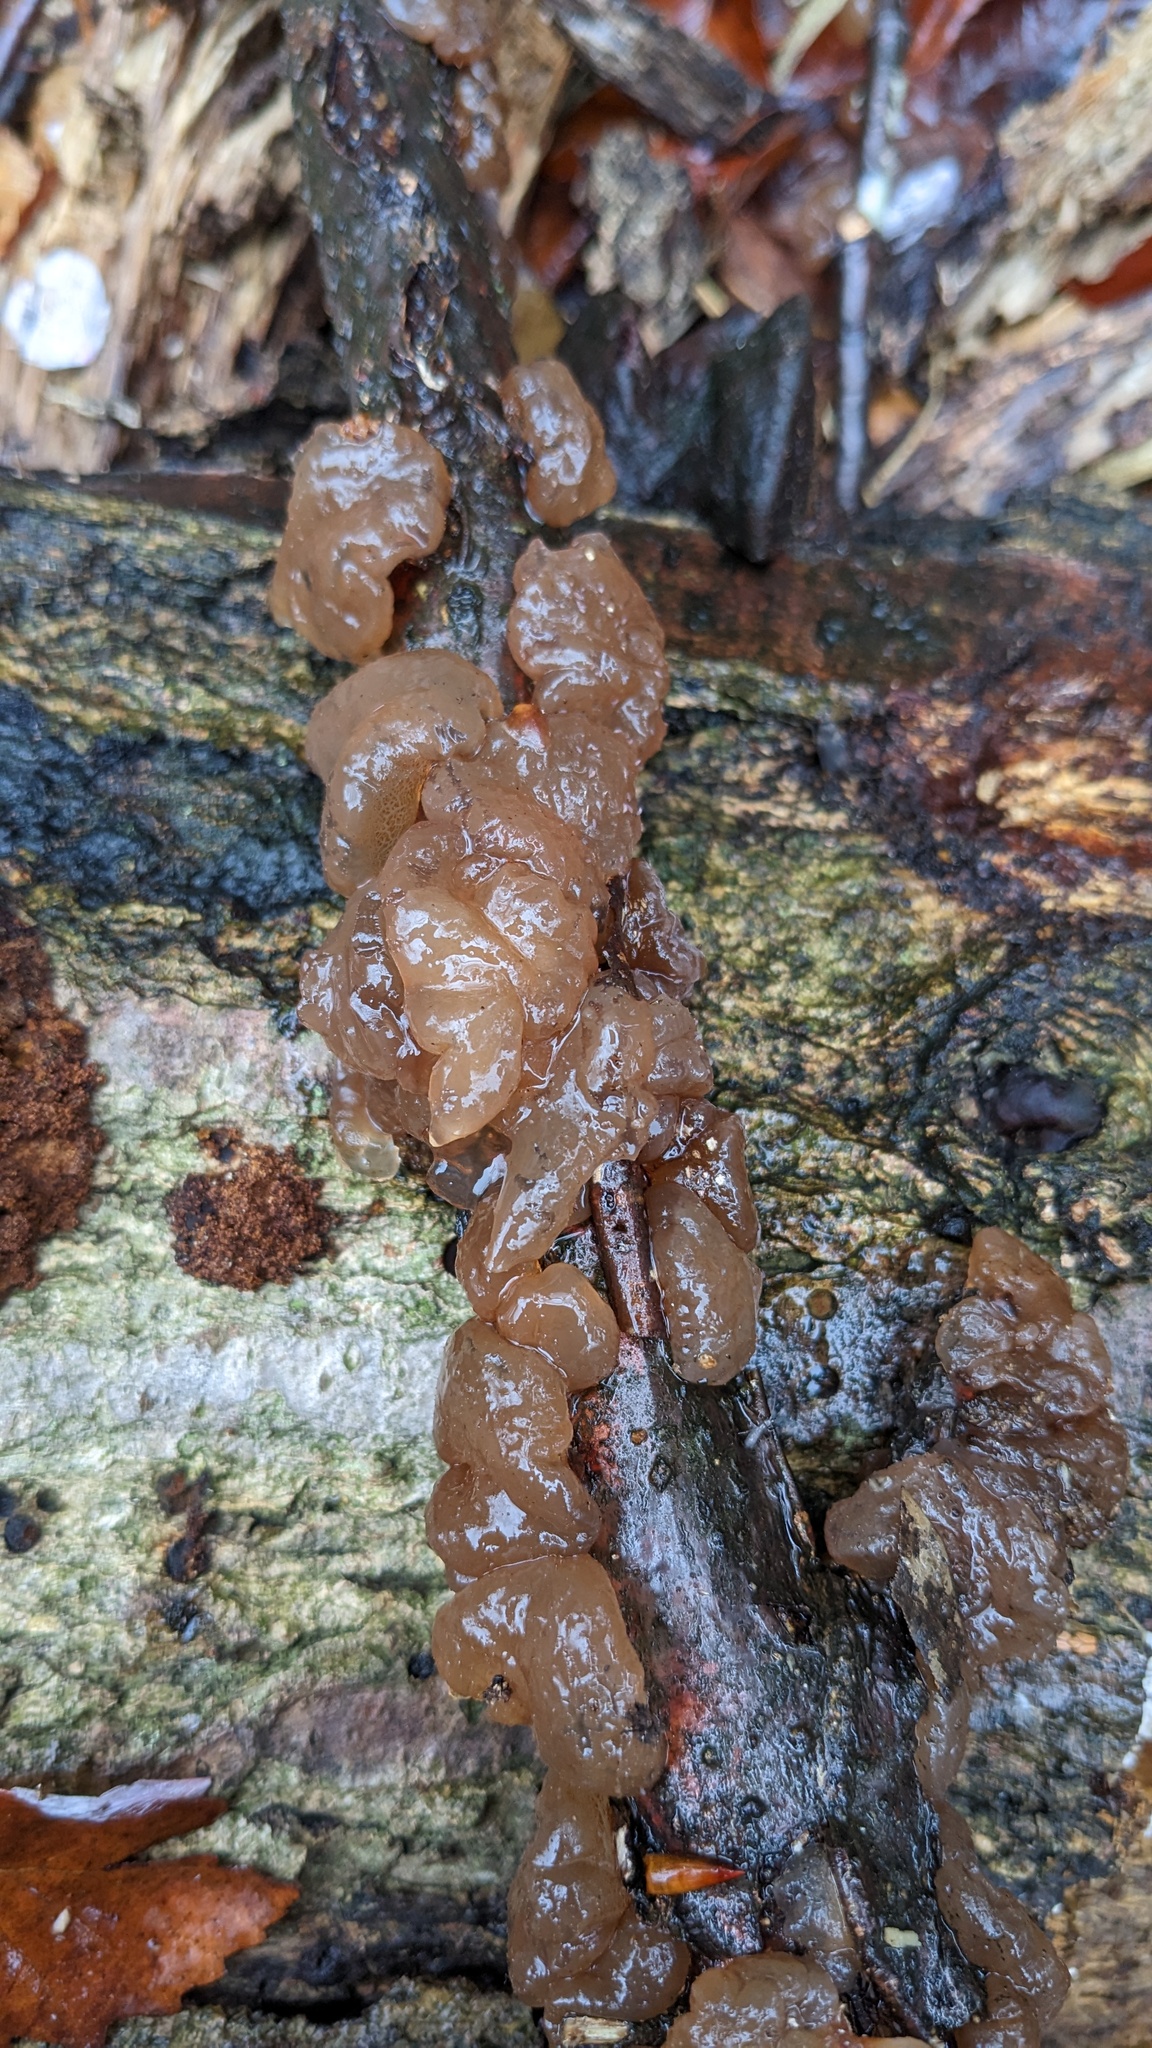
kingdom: Fungi
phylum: Basidiomycota
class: Agaricomycetes
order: Auriculariales
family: Auriculariaceae
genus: Exidia
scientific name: Exidia uvapassa
